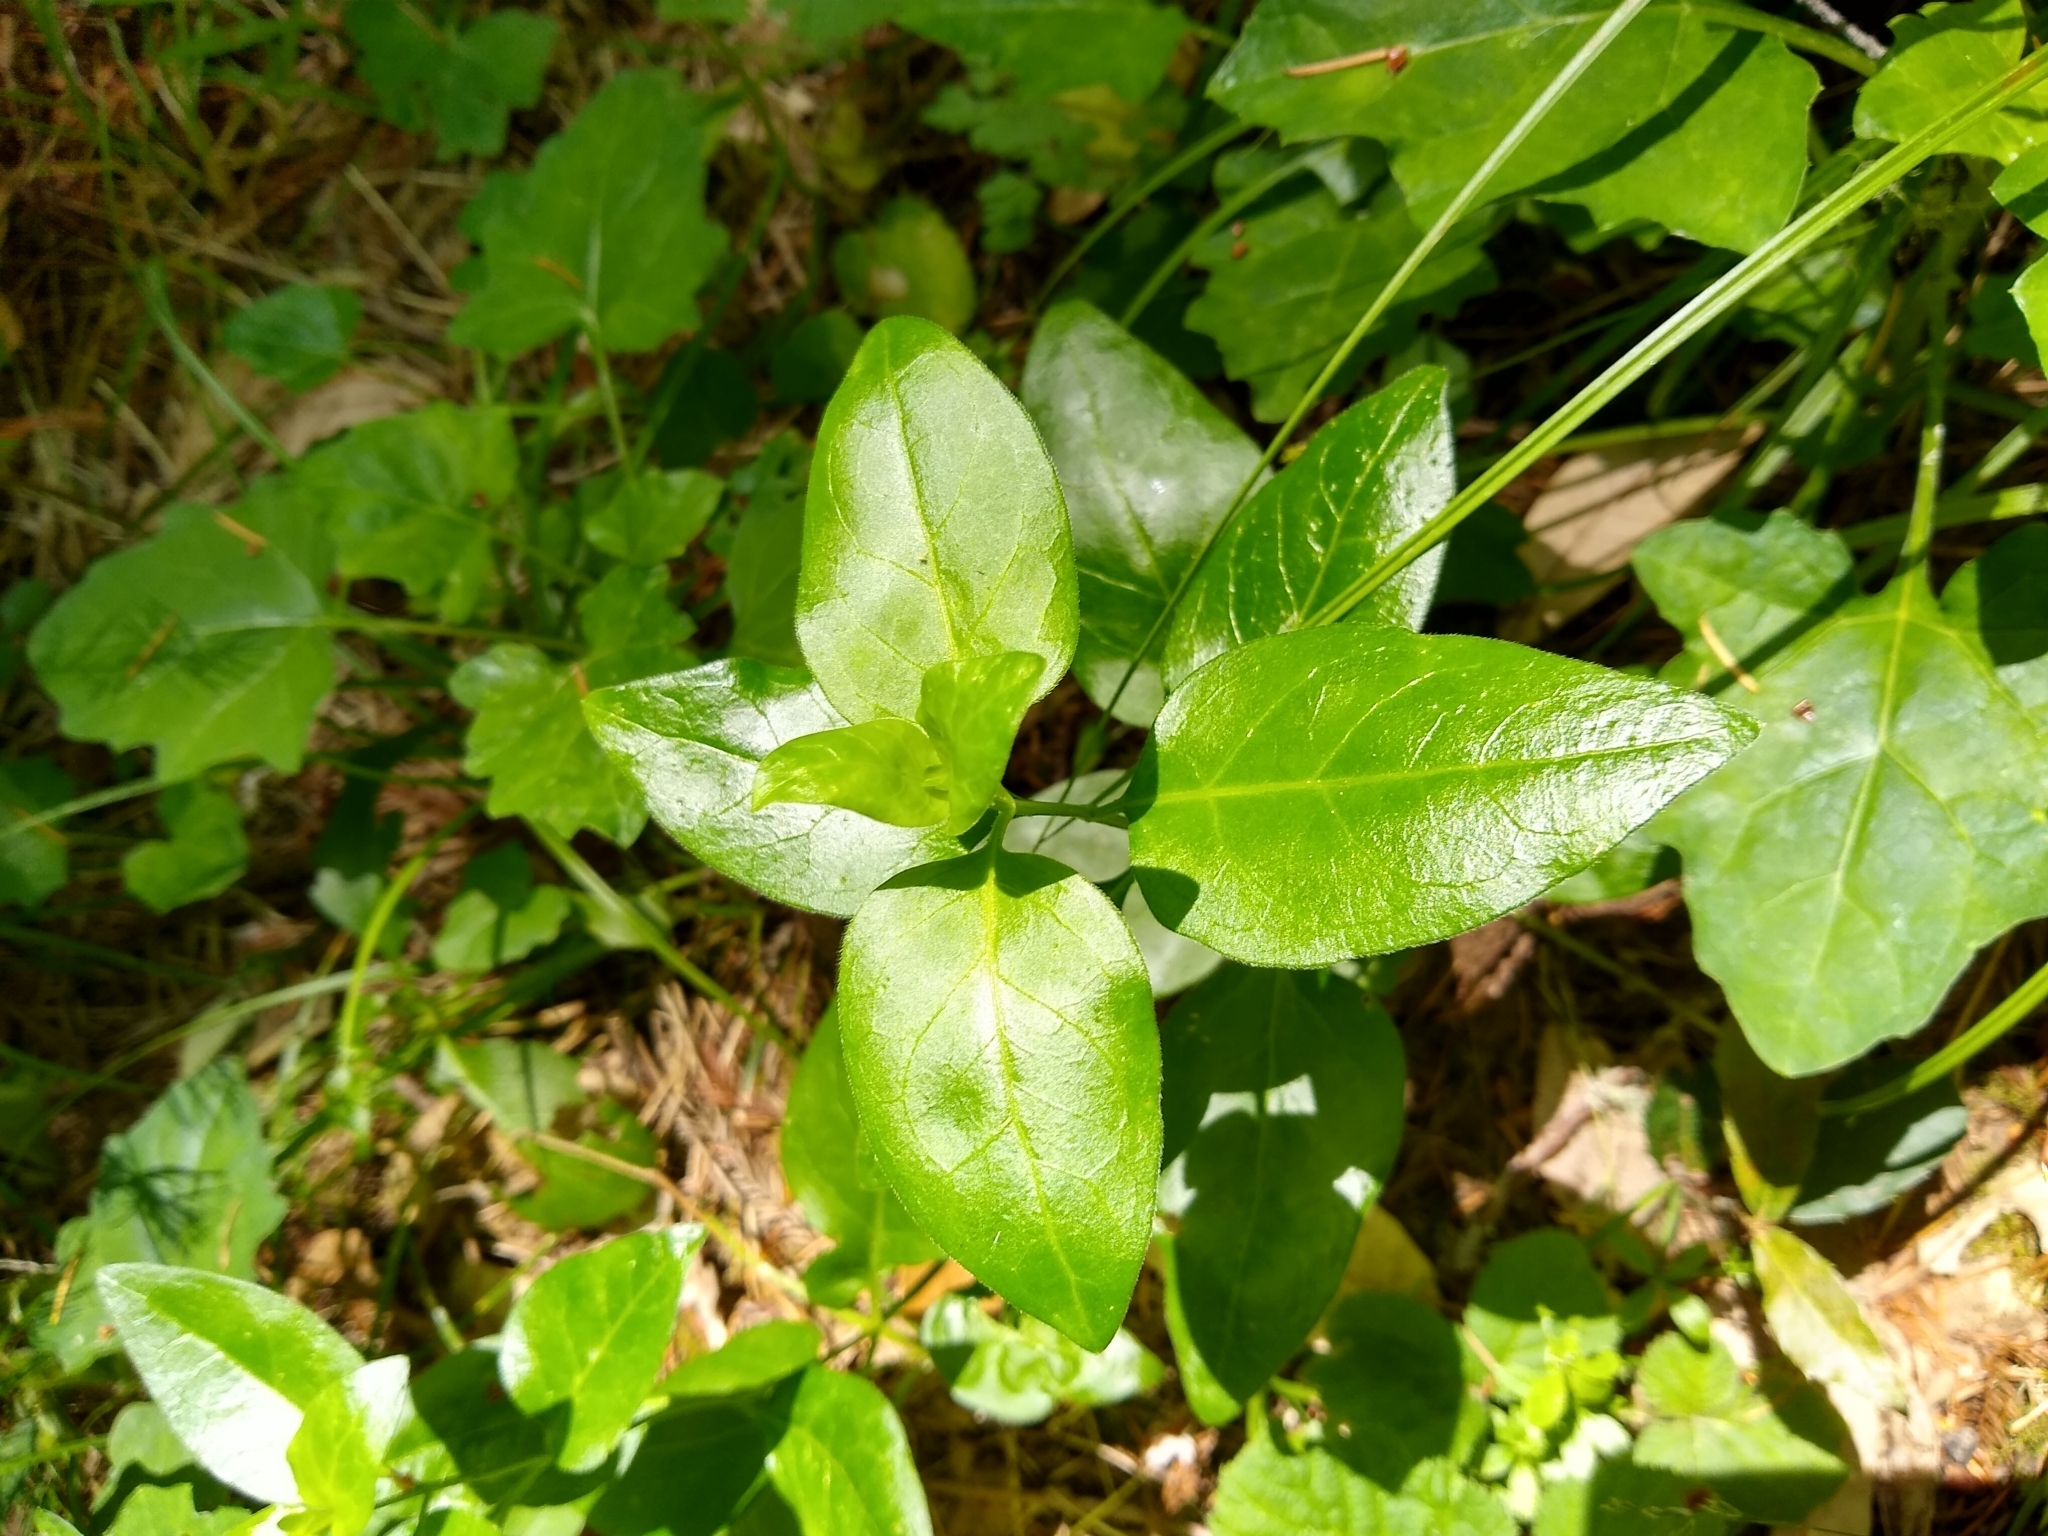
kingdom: Plantae
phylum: Tracheophyta
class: Magnoliopsida
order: Gentianales
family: Apocynaceae
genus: Vinca
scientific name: Vinca major
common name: Greater periwinkle
